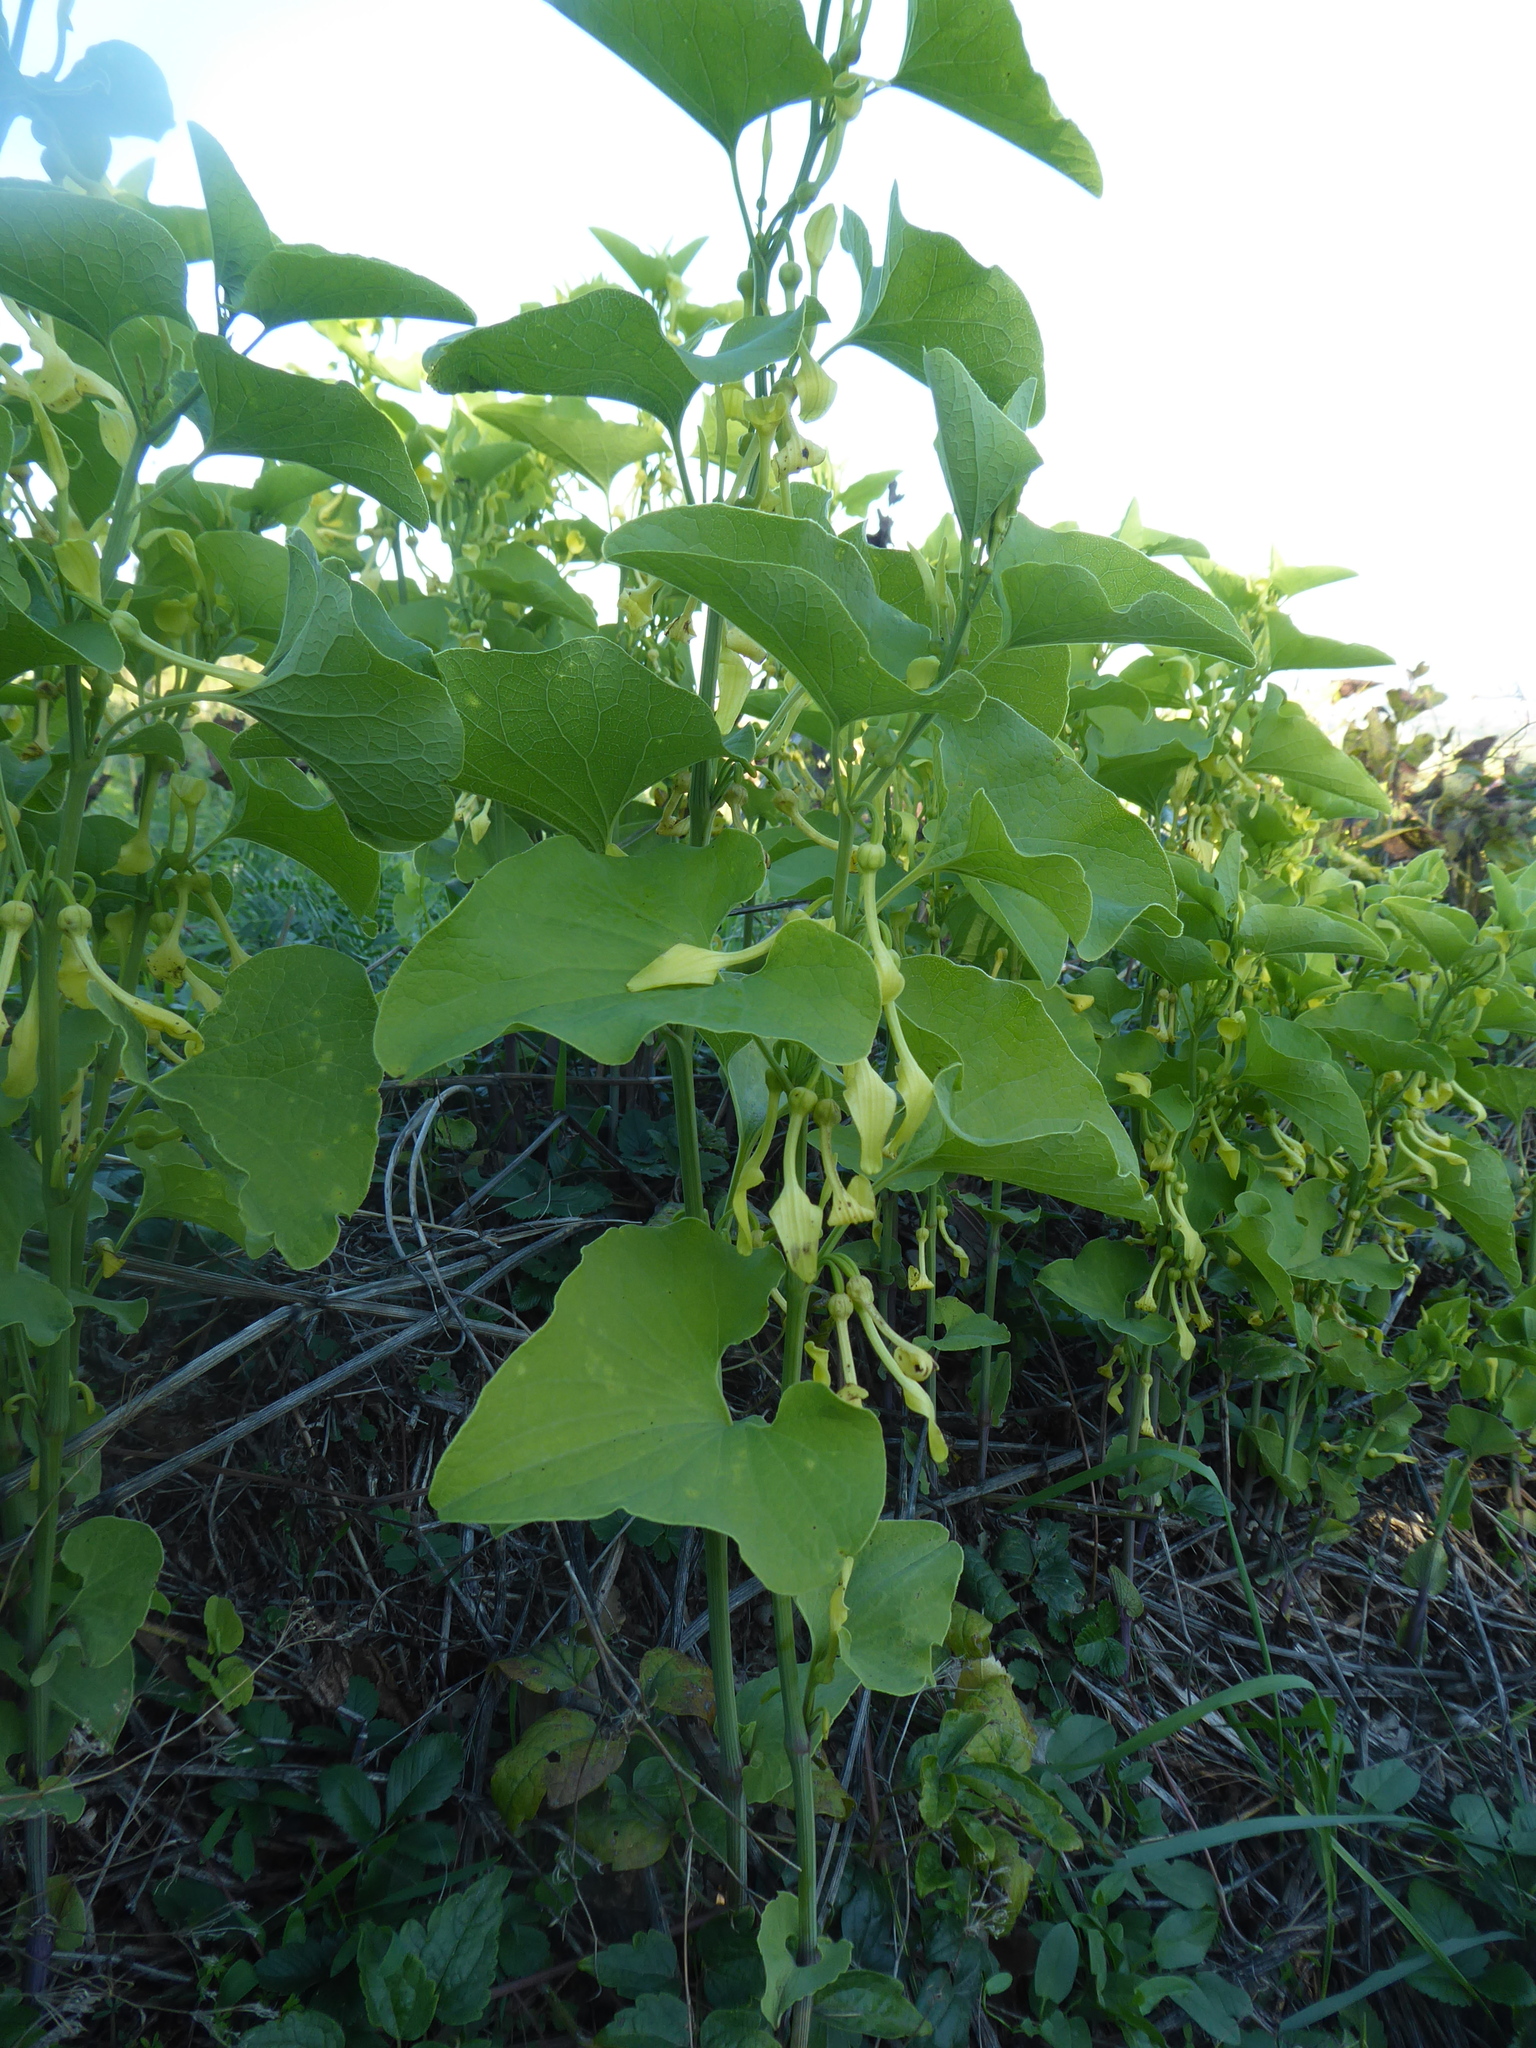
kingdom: Plantae
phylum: Tracheophyta
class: Magnoliopsida
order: Piperales
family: Aristolochiaceae
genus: Aristolochia
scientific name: Aristolochia clematitis
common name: Birthwort
